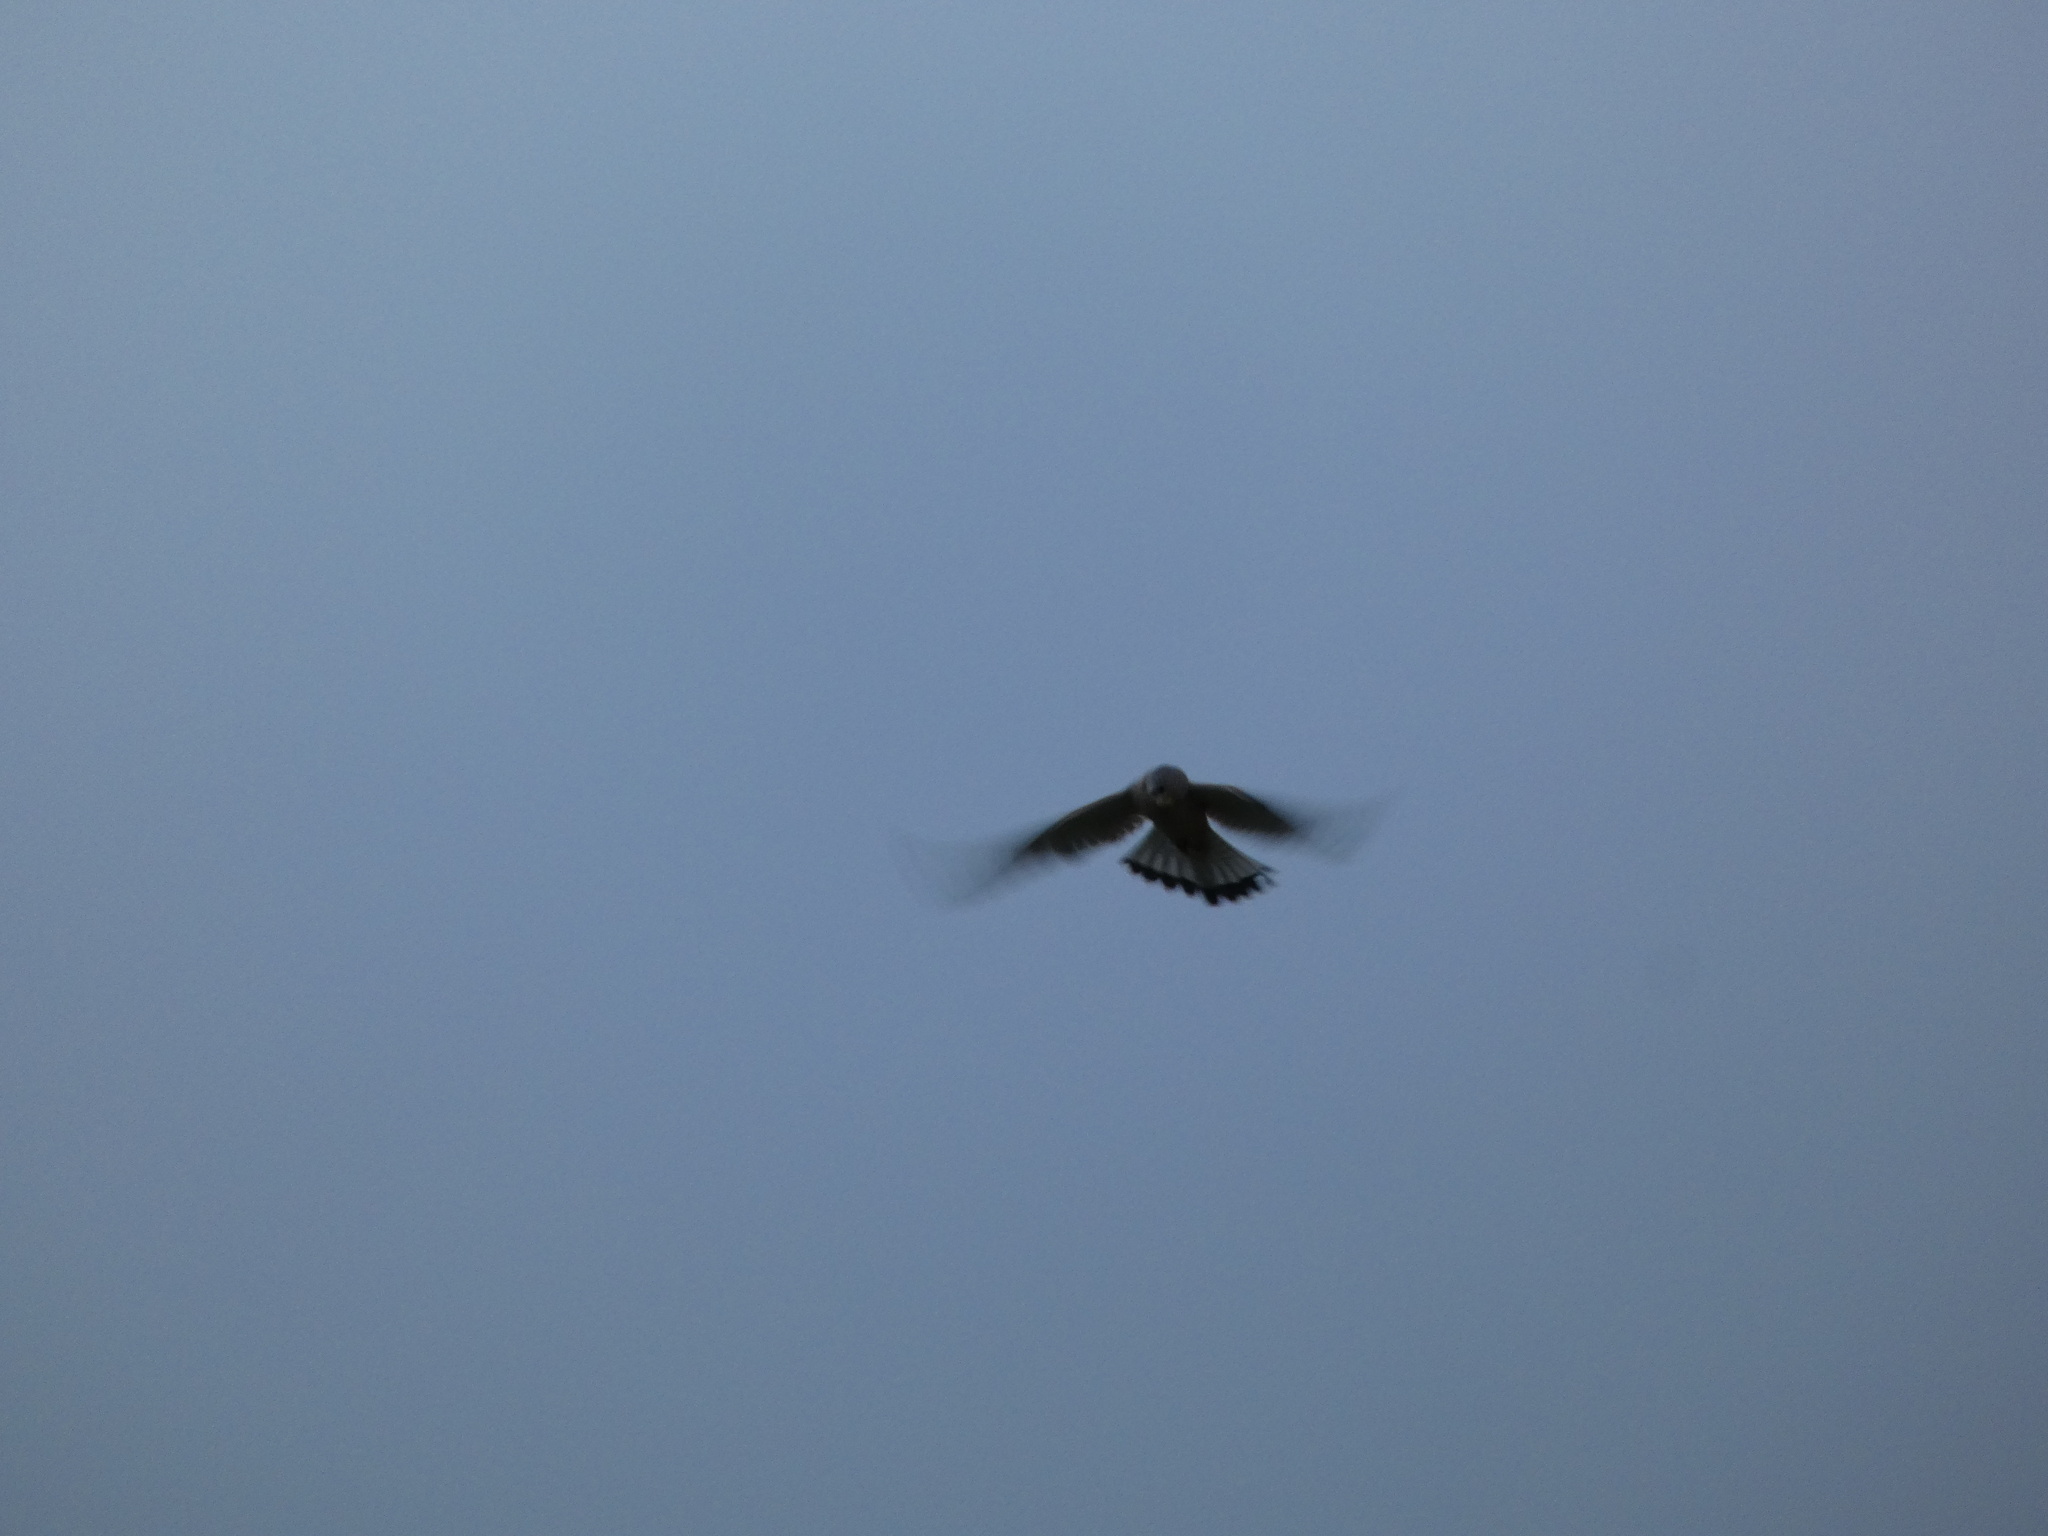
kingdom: Animalia
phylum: Chordata
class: Aves
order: Falconiformes
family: Falconidae
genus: Falco
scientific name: Falco tinnunculus
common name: Common kestrel
